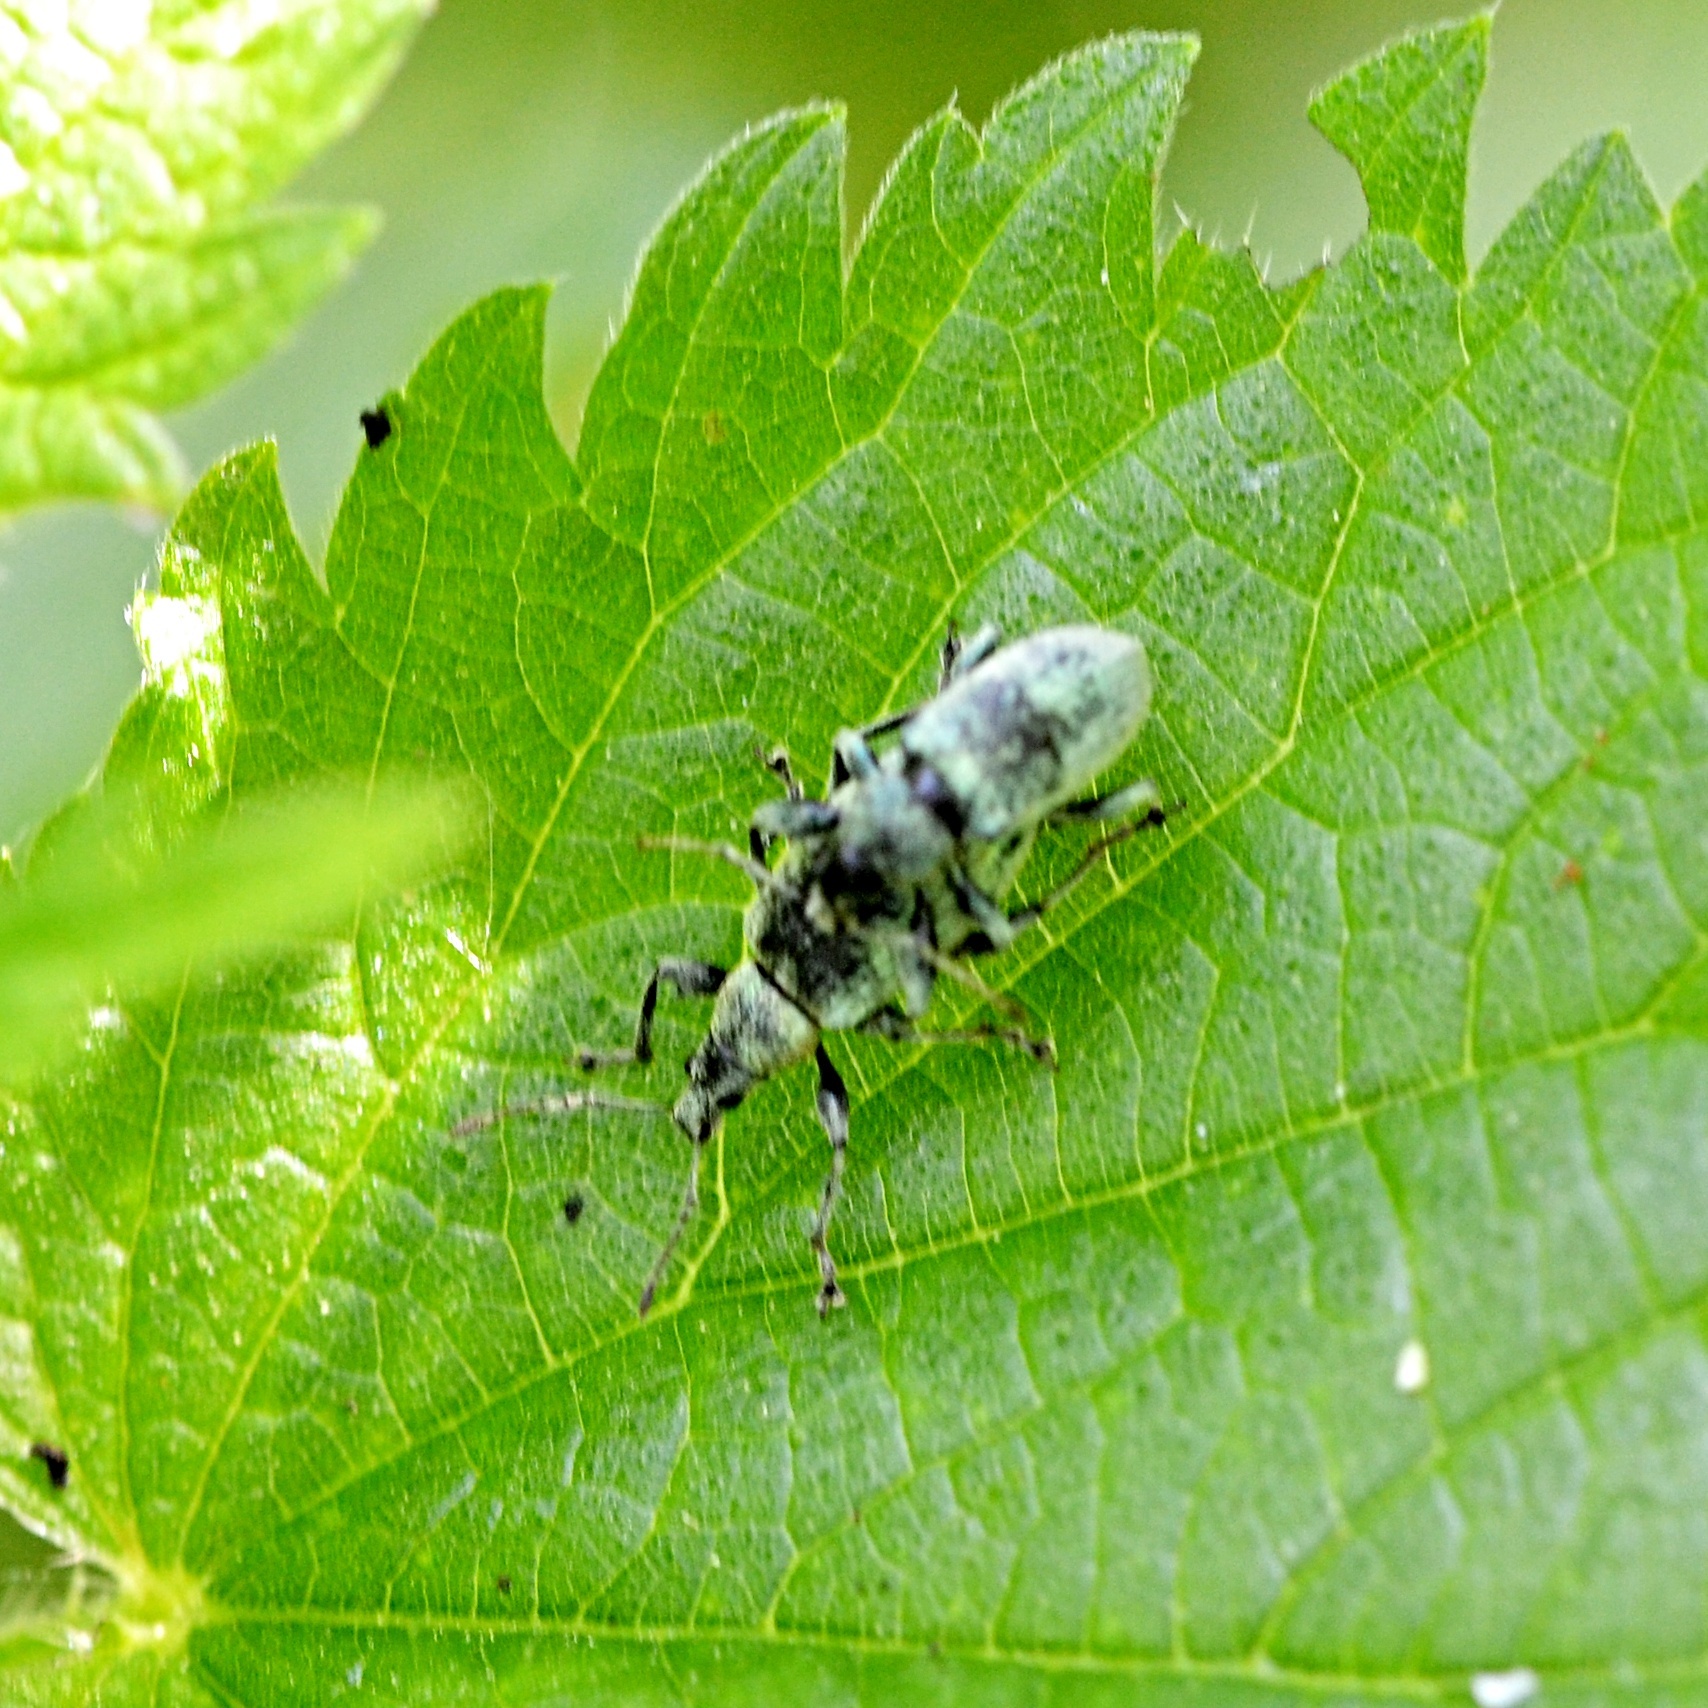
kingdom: Animalia
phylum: Arthropoda
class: Insecta
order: Coleoptera
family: Curculionidae
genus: Phyllobius
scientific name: Phyllobius pomaceus
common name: Green nettle weevil
